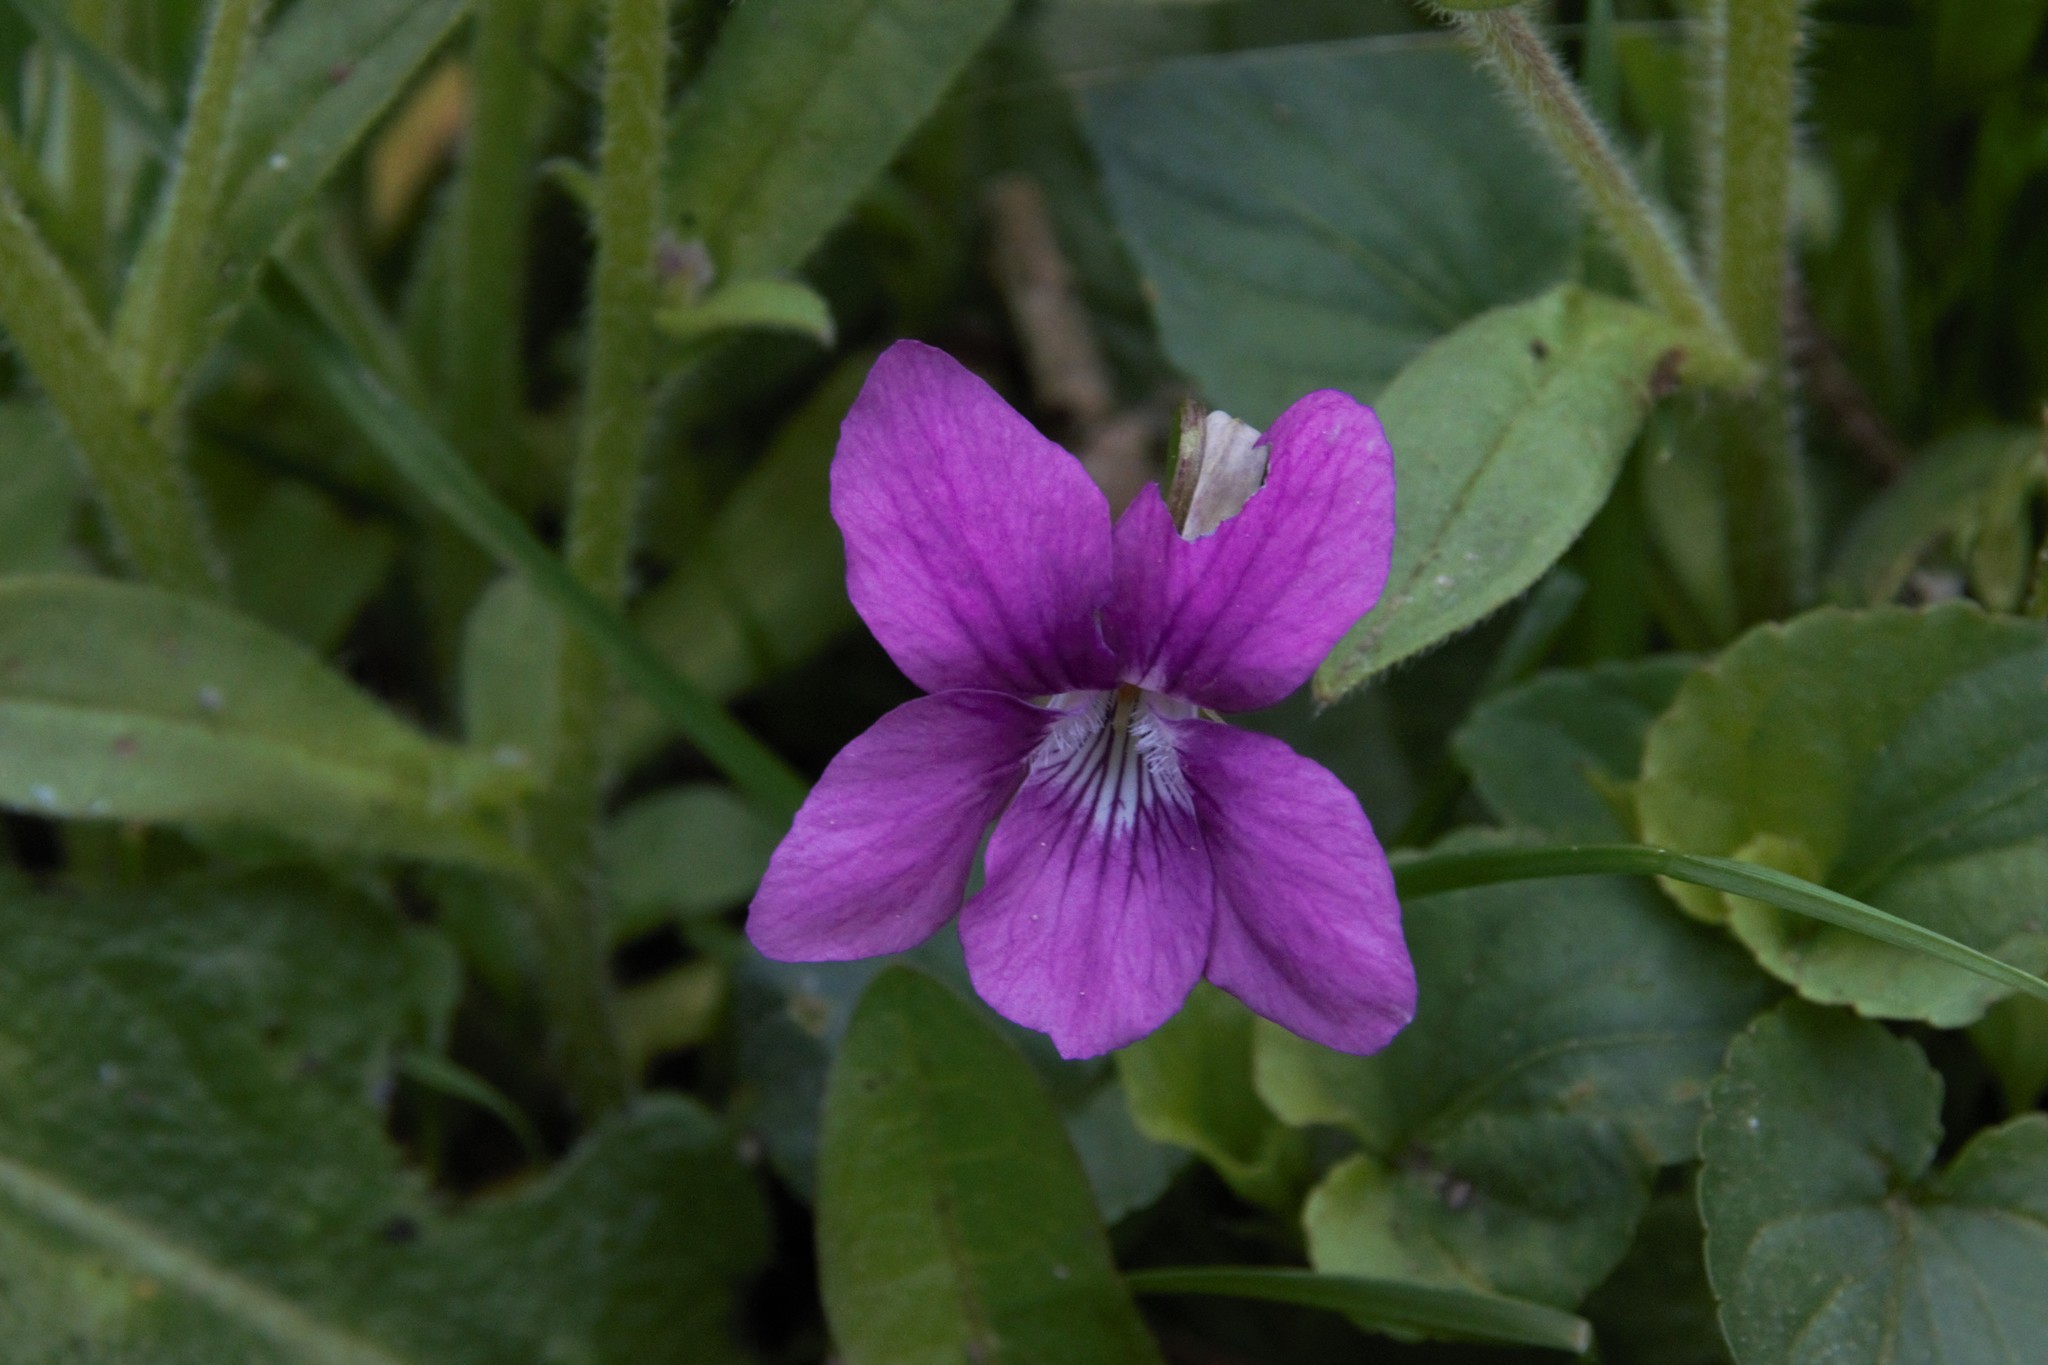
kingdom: Plantae
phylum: Tracheophyta
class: Magnoliopsida
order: Malpighiales
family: Violaceae
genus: Viola
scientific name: Viola riviniana
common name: Common dog-violet
